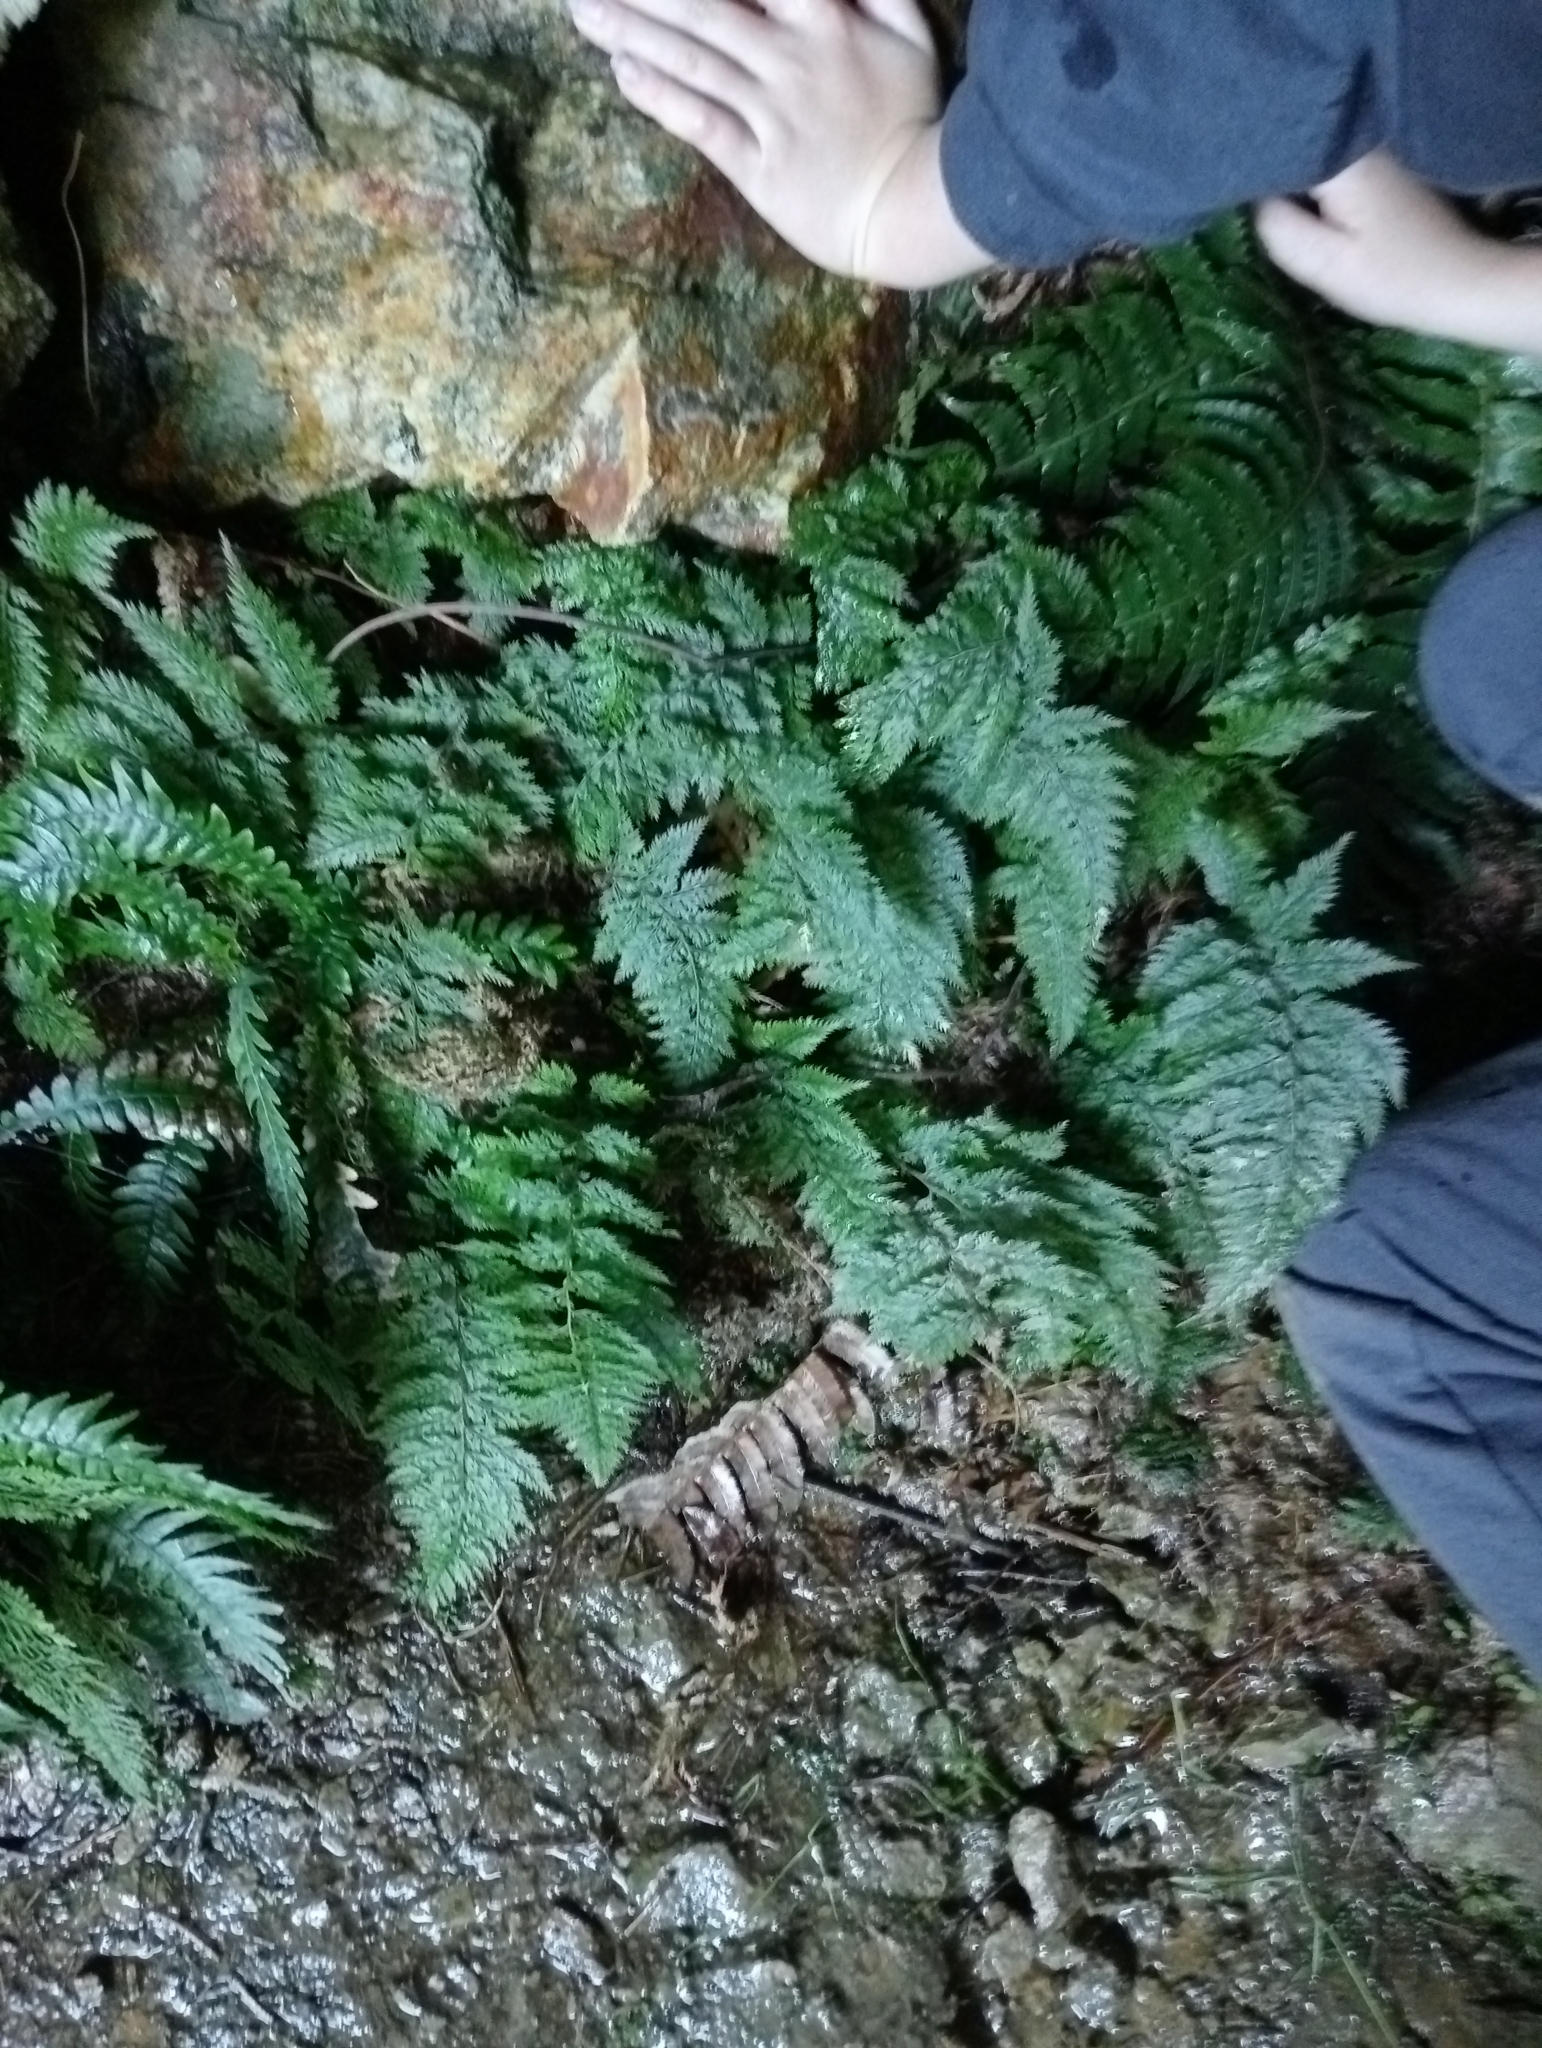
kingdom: Plantae
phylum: Tracheophyta
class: Polypodiopsida
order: Polypodiales
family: Dennstaedtiaceae
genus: Dennstaedtia
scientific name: Dennstaedtia novae-zelandiae
